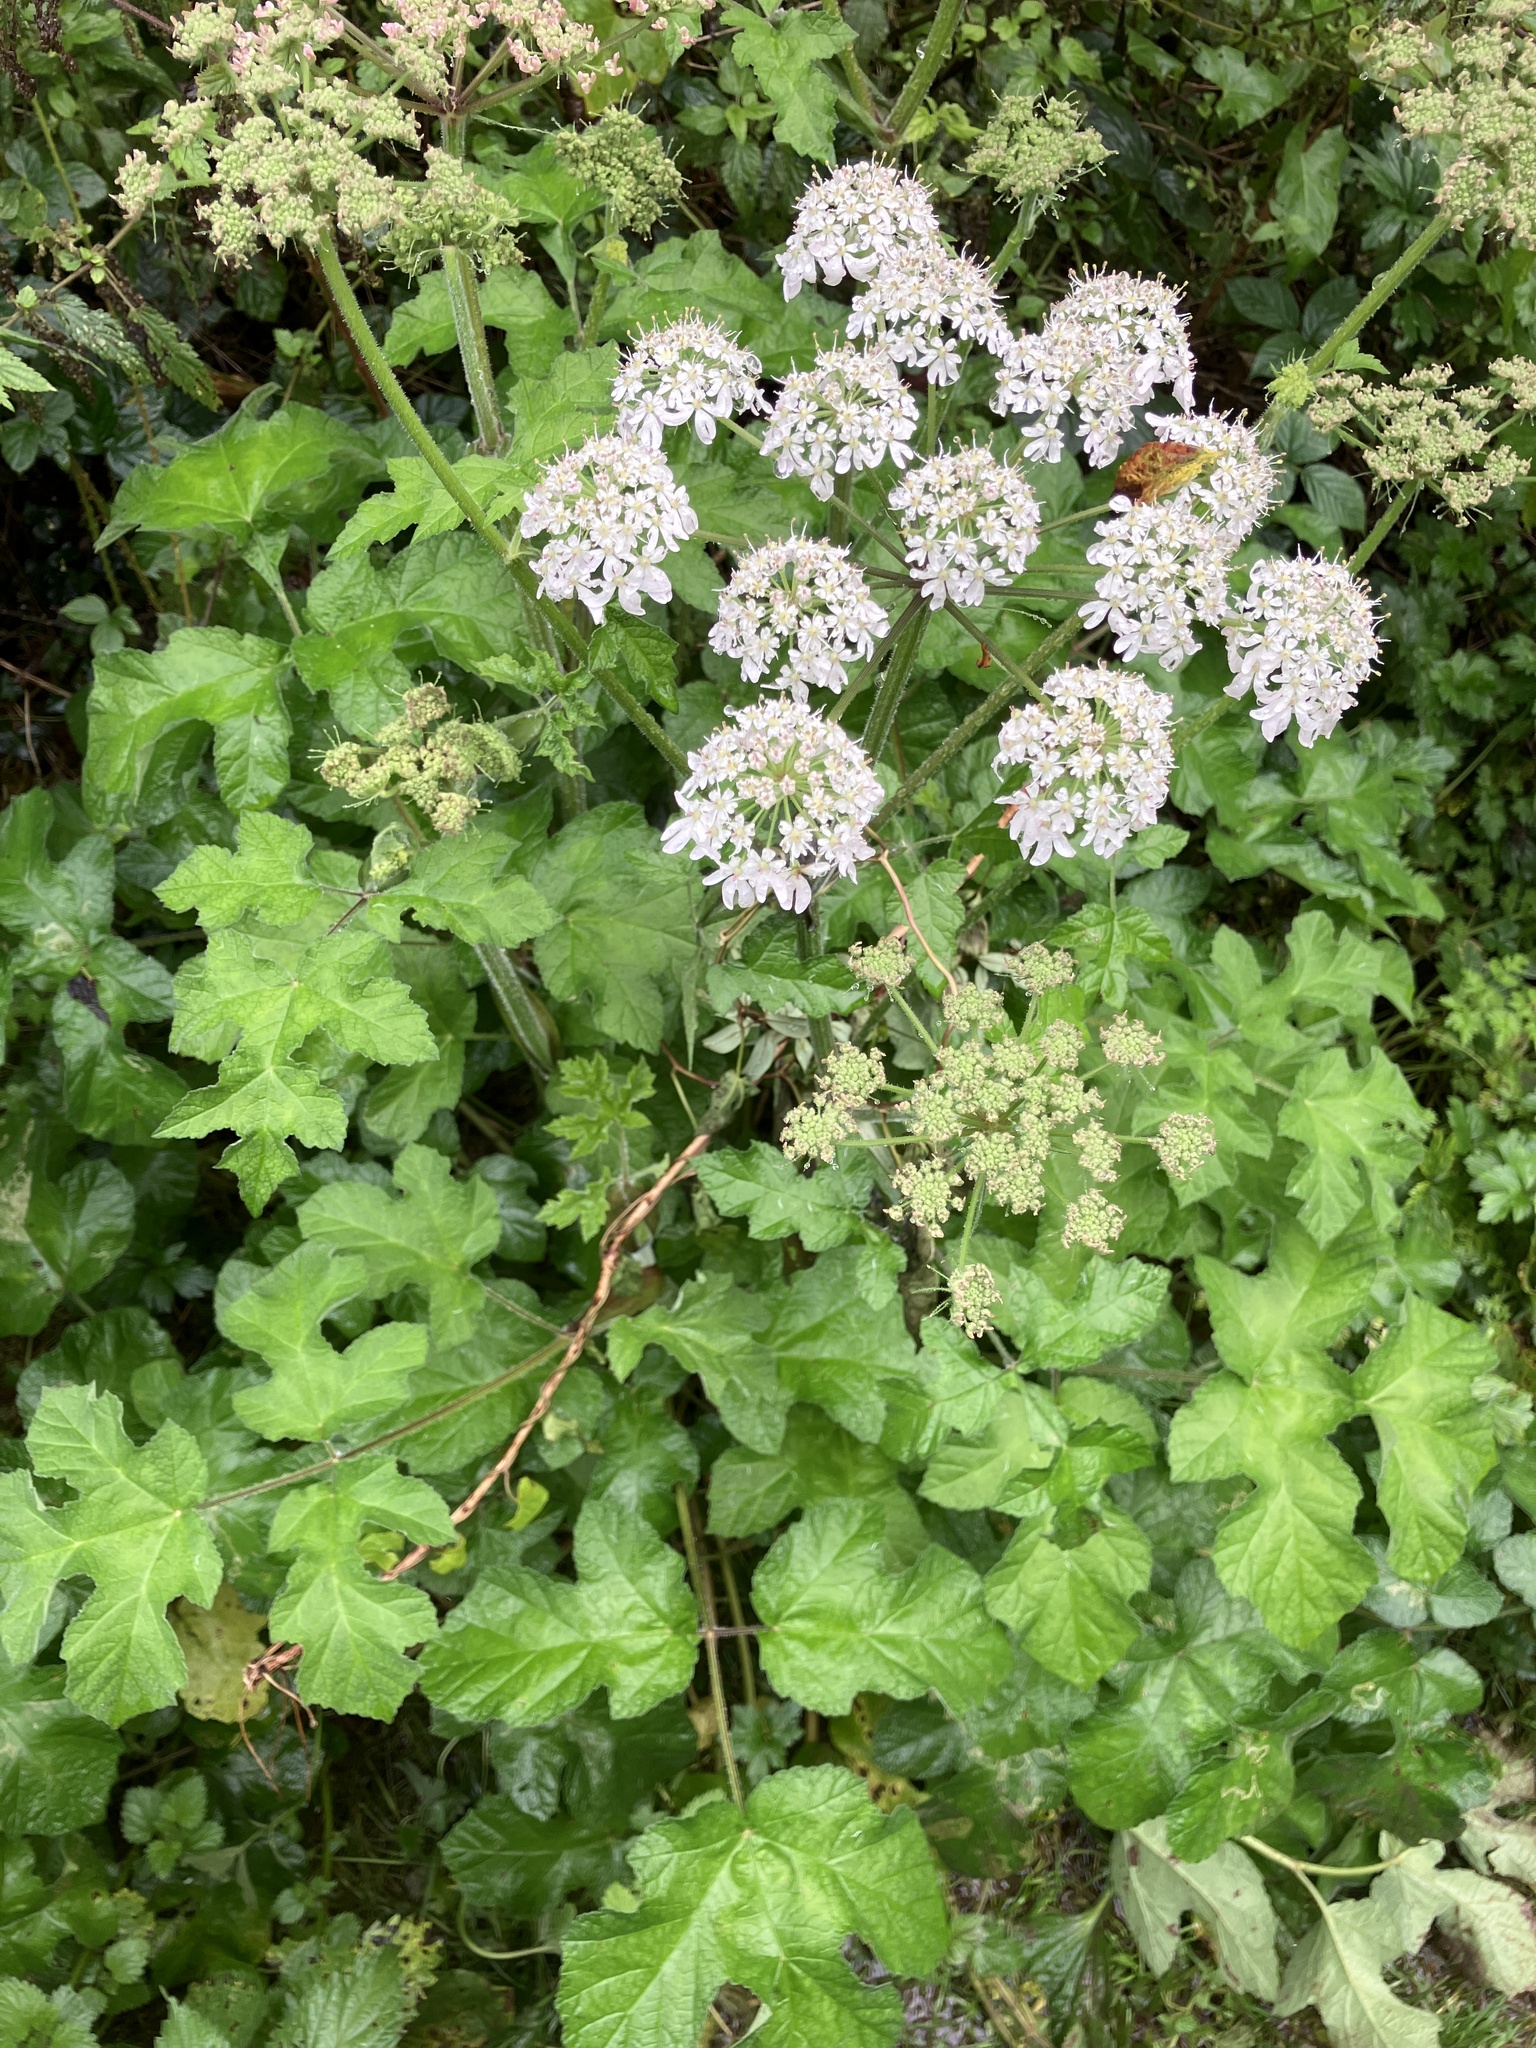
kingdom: Plantae
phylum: Tracheophyta
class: Magnoliopsida
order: Apiales
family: Apiaceae
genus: Heracleum
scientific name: Heracleum sphondylium
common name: Hogweed
